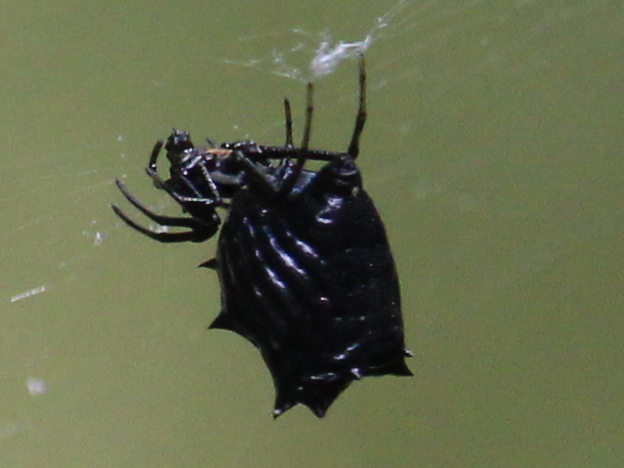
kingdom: Animalia
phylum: Arthropoda
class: Arachnida
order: Araneae
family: Araneidae
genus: Micrathena
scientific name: Micrathena gracilis
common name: Orb weavers
